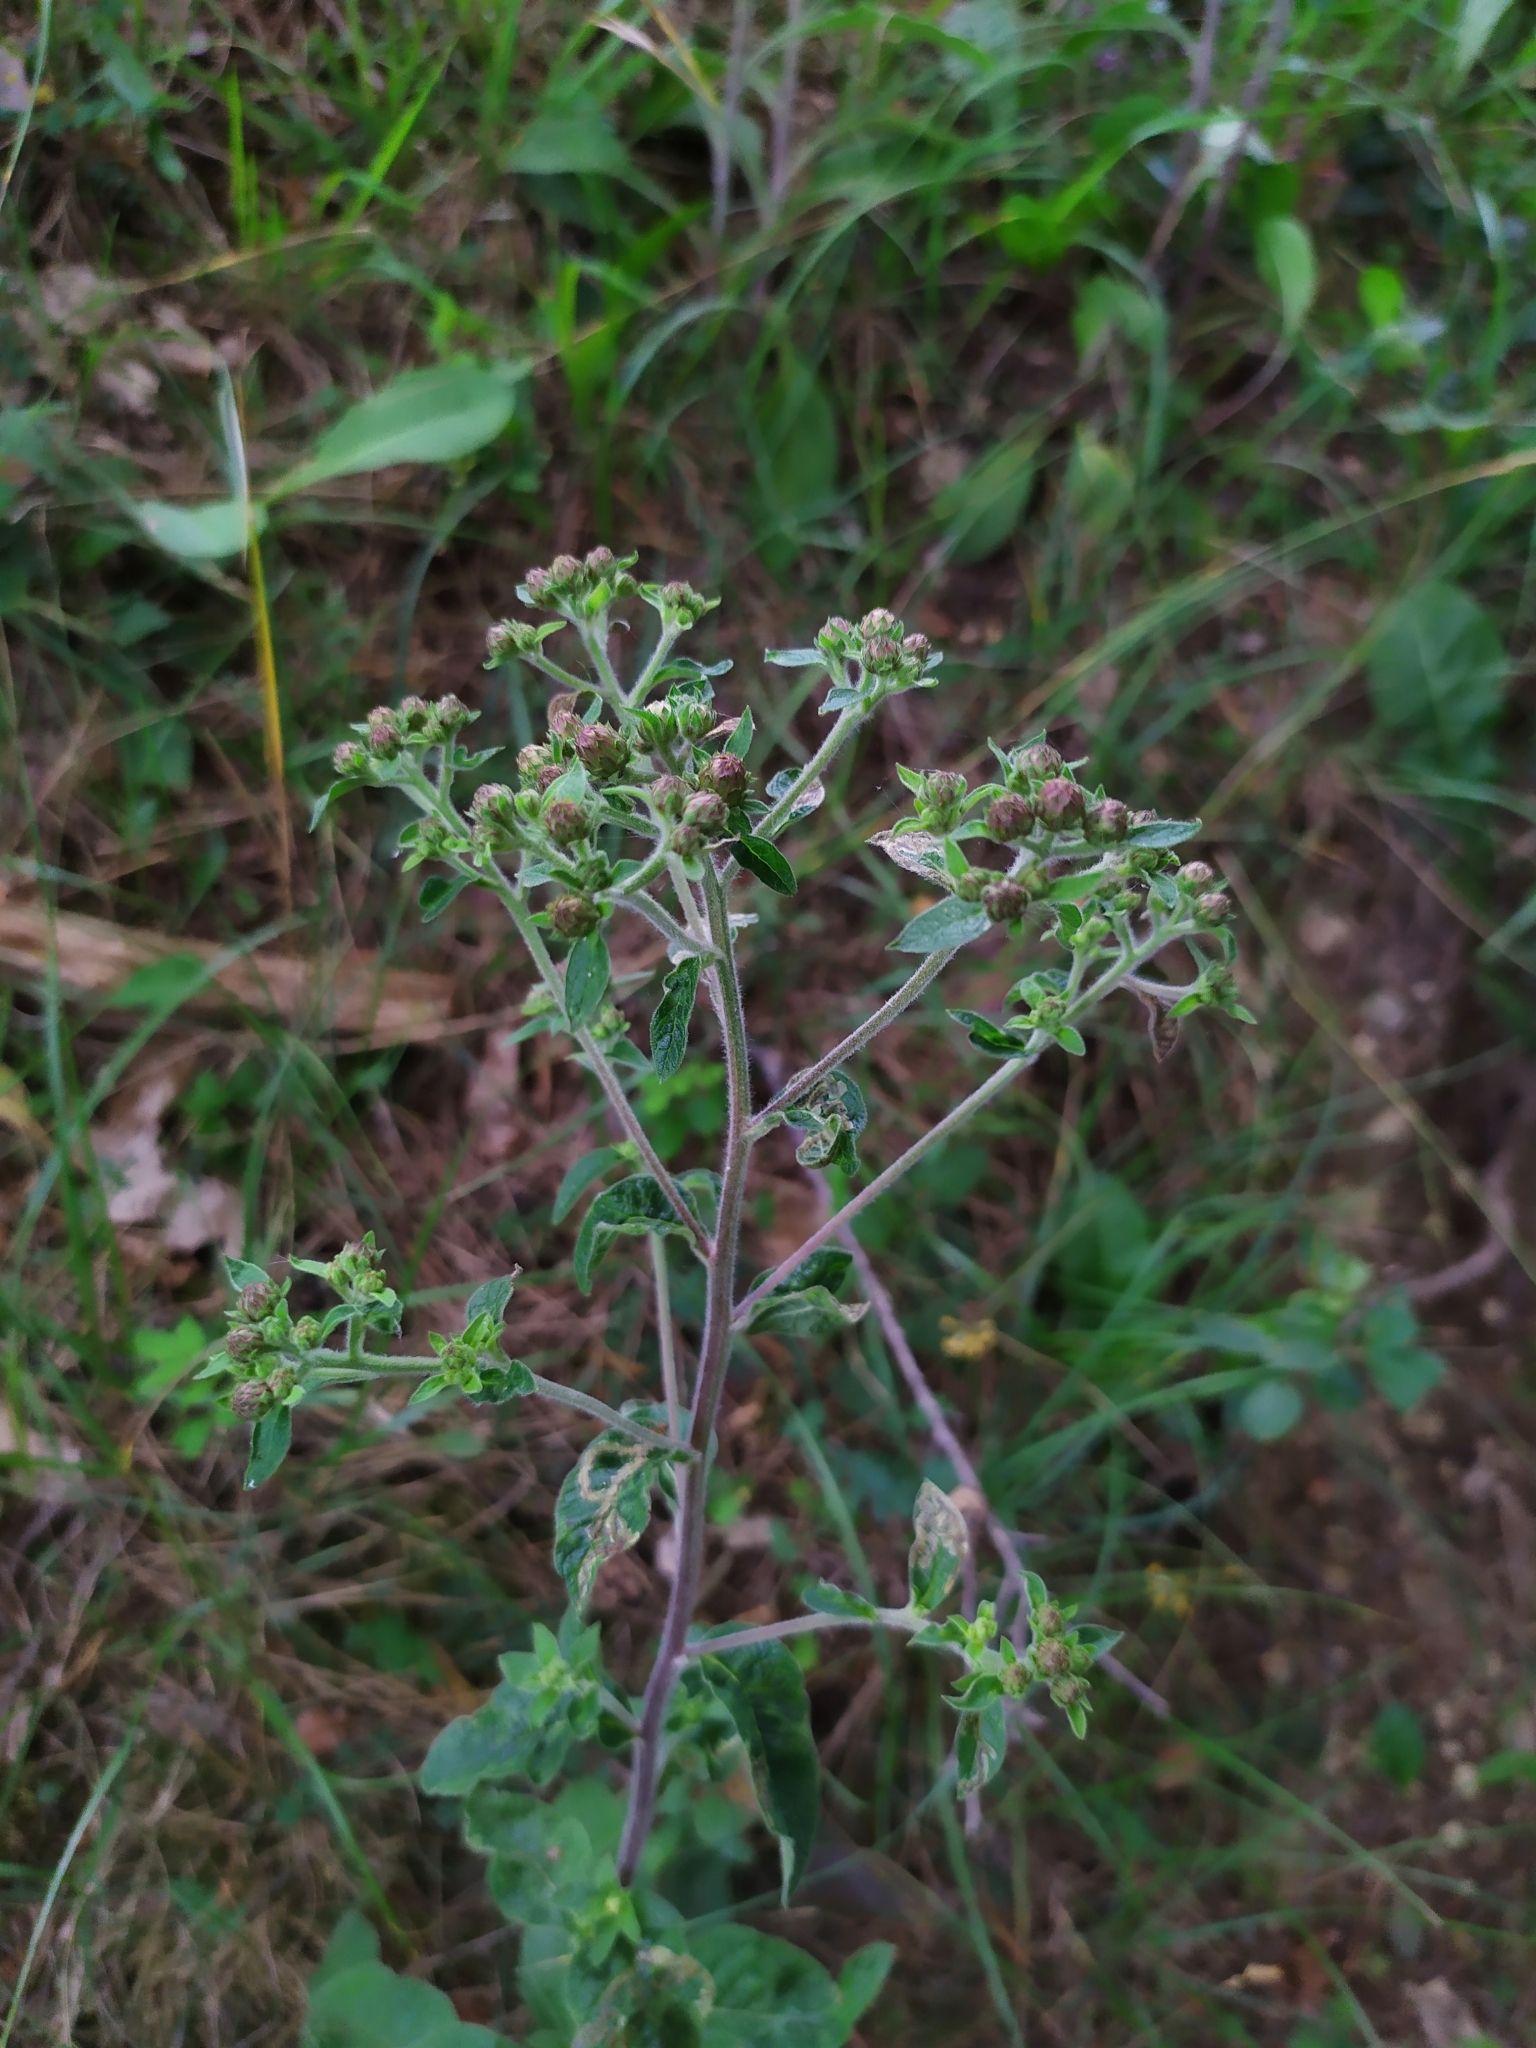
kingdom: Plantae
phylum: Tracheophyta
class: Magnoliopsida
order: Asterales
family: Asteraceae
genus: Pentanema
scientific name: Pentanema squarrosum
